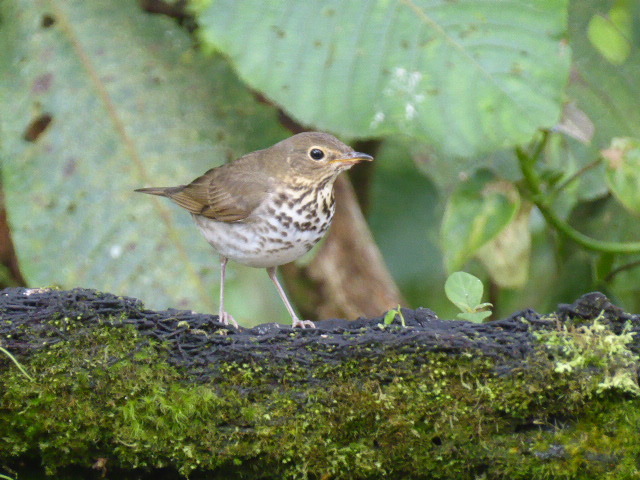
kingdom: Animalia
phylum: Chordata
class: Aves
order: Passeriformes
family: Turdidae
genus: Catharus
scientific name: Catharus ustulatus
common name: Swainson's thrush
